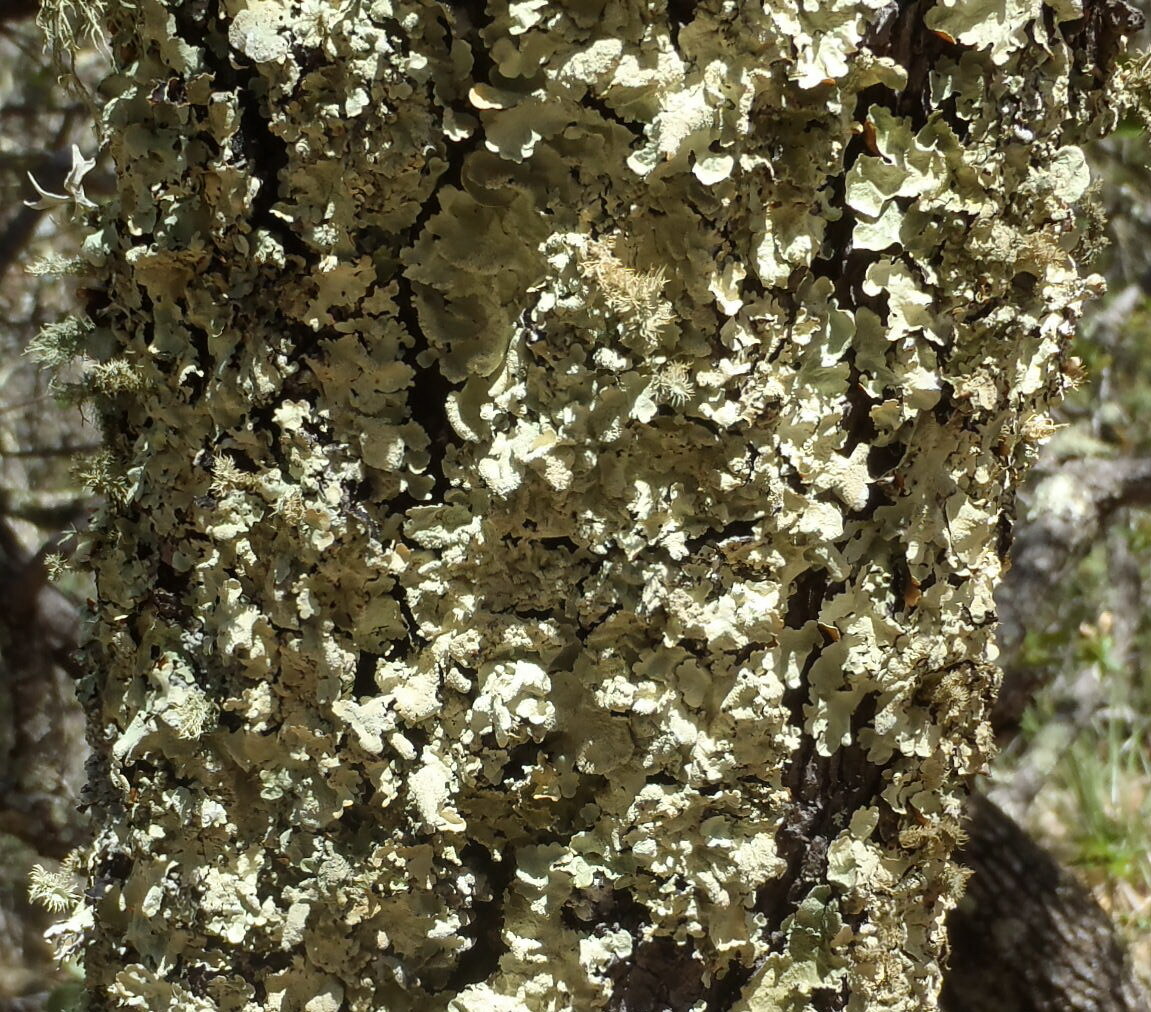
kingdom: Plantae
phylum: Tracheophyta
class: Magnoliopsida
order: Caryophyllales
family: Caryophyllaceae
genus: Silene
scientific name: Silene laciniata
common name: Indian-pink
